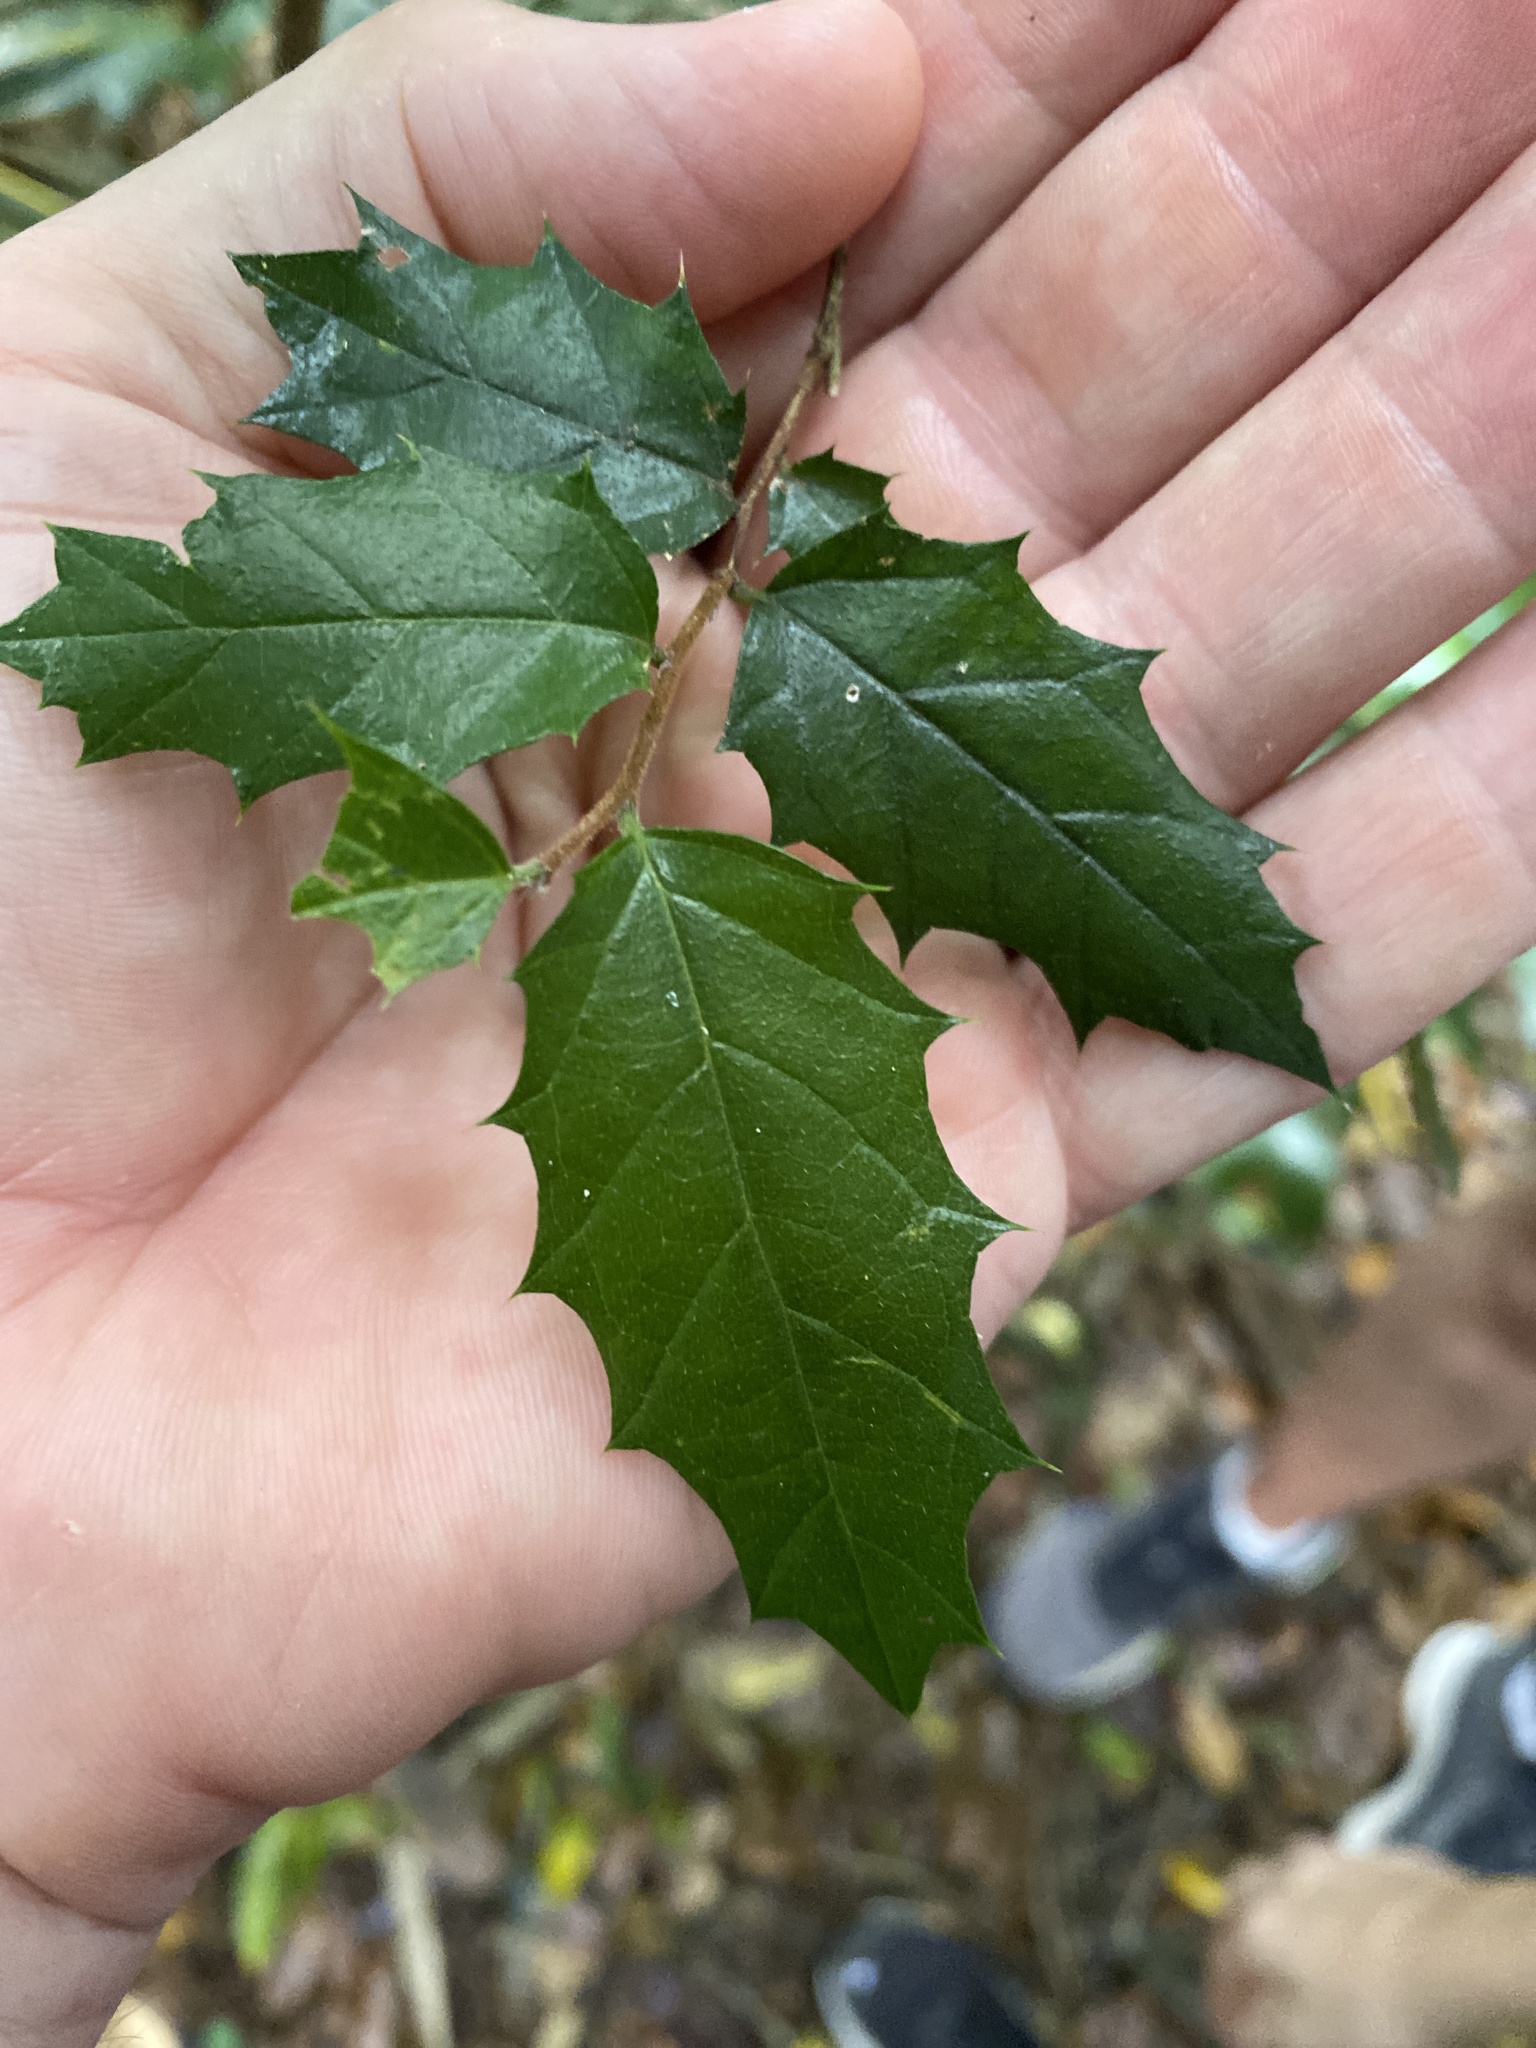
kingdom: Plantae
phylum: Tracheophyta
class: Magnoliopsida
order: Rosales
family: Cannabaceae
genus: Aphananthe
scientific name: Aphananthe philippinensis
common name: Wild holly
